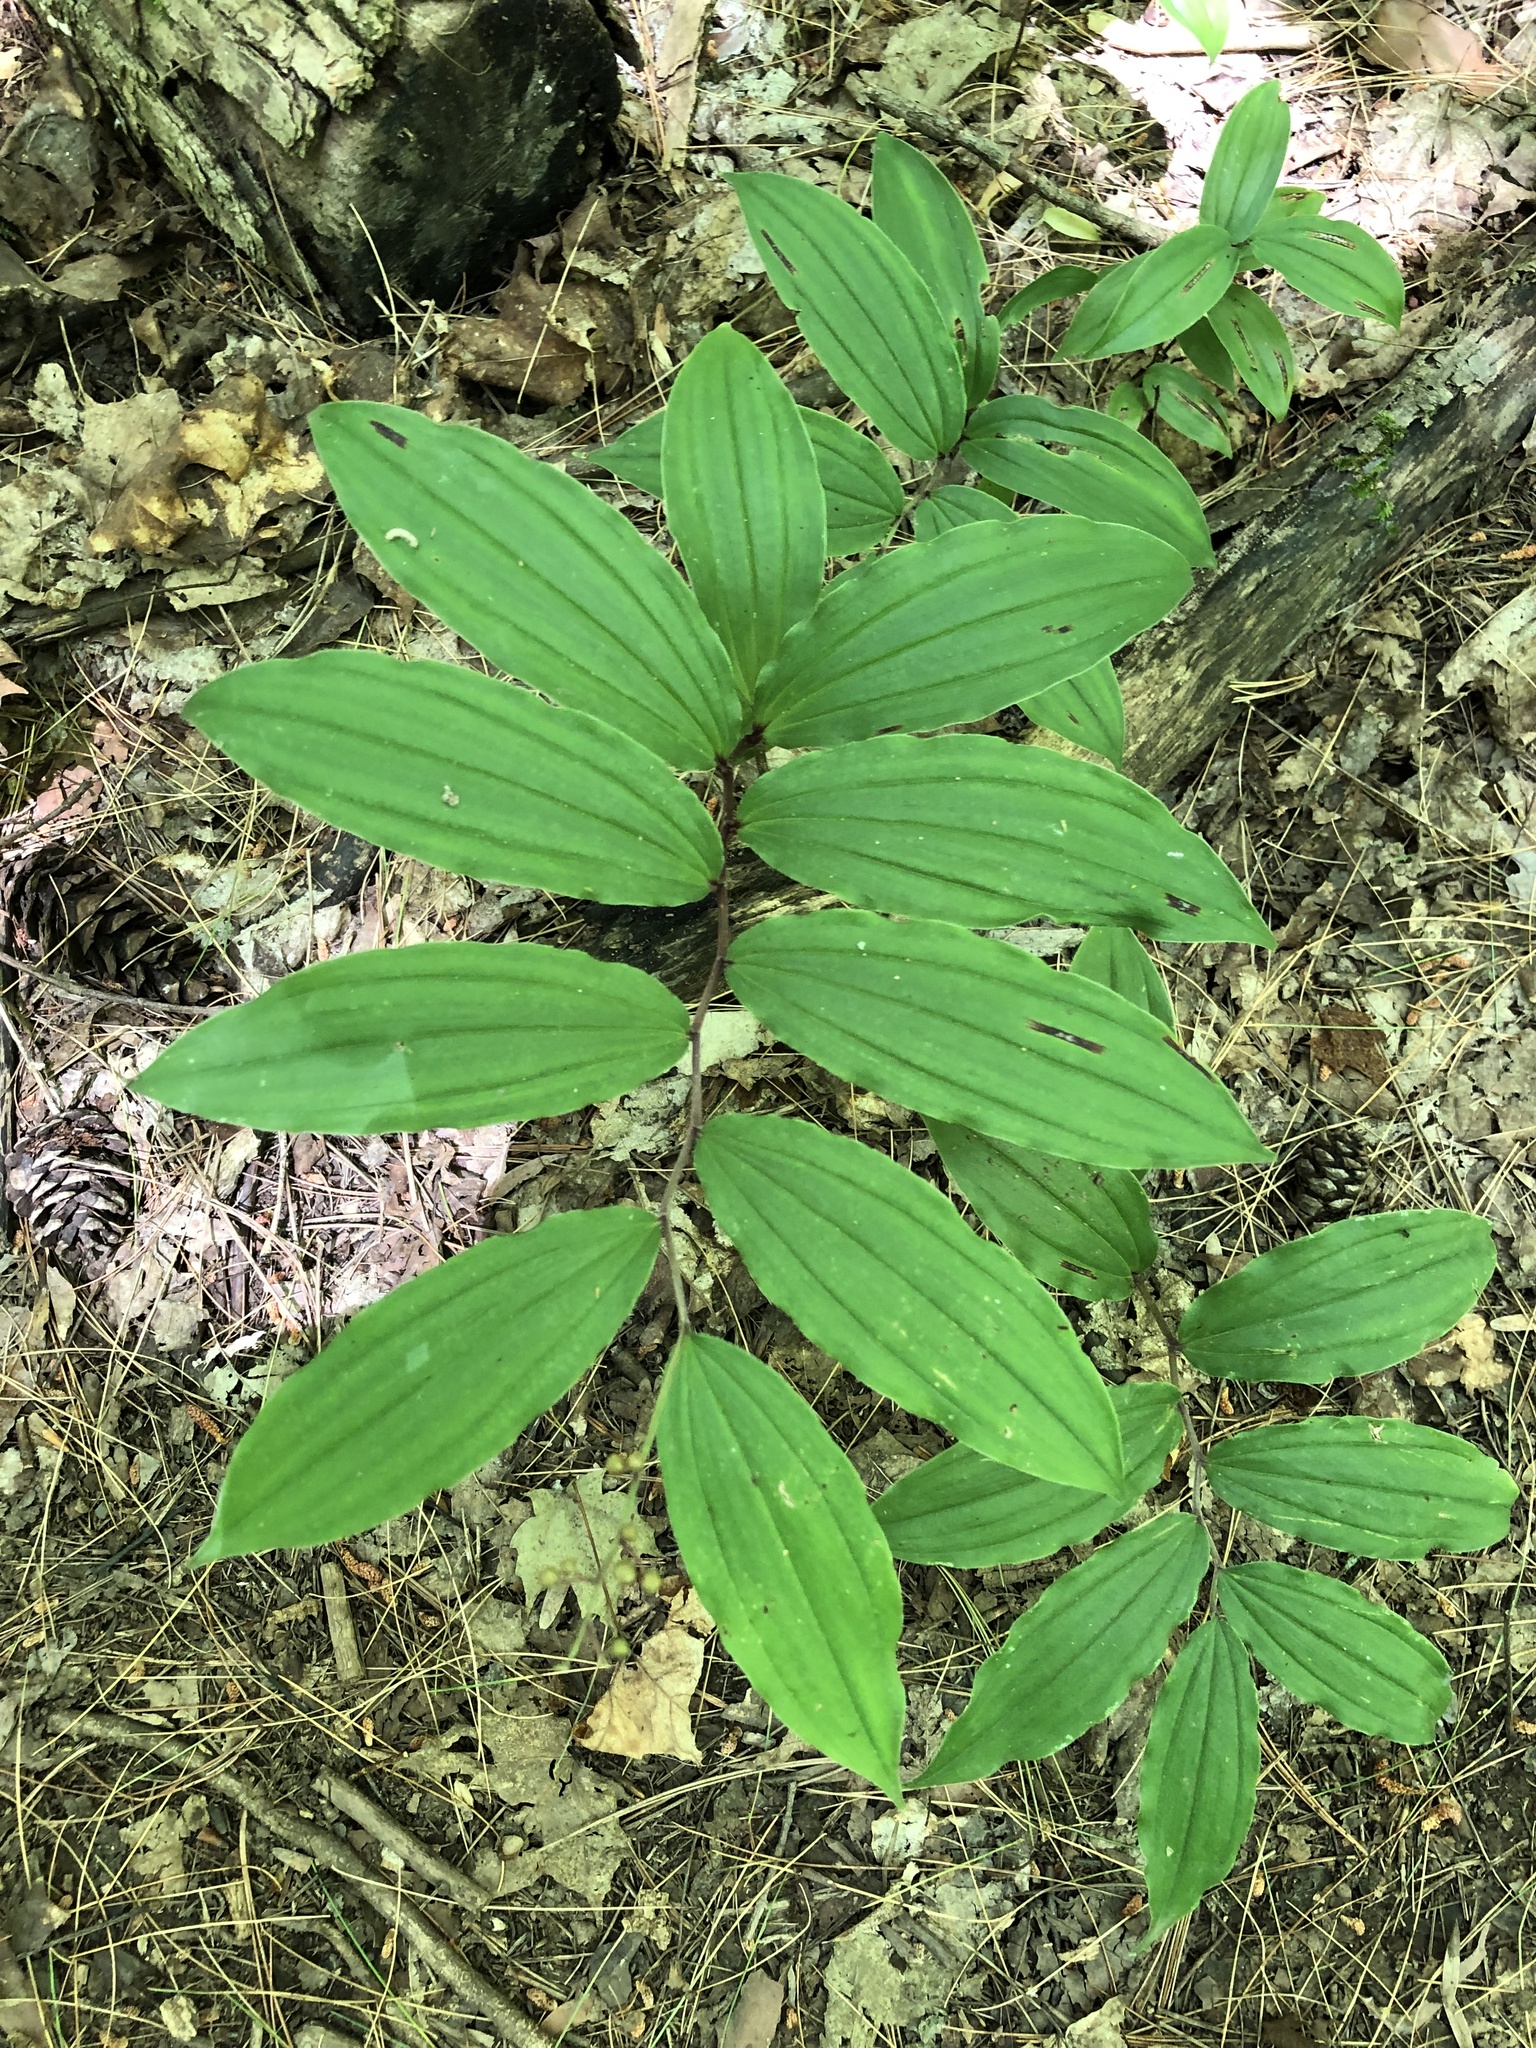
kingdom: Plantae
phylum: Tracheophyta
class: Liliopsida
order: Asparagales
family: Asparagaceae
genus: Maianthemum
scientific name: Maianthemum racemosum
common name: False spikenard
